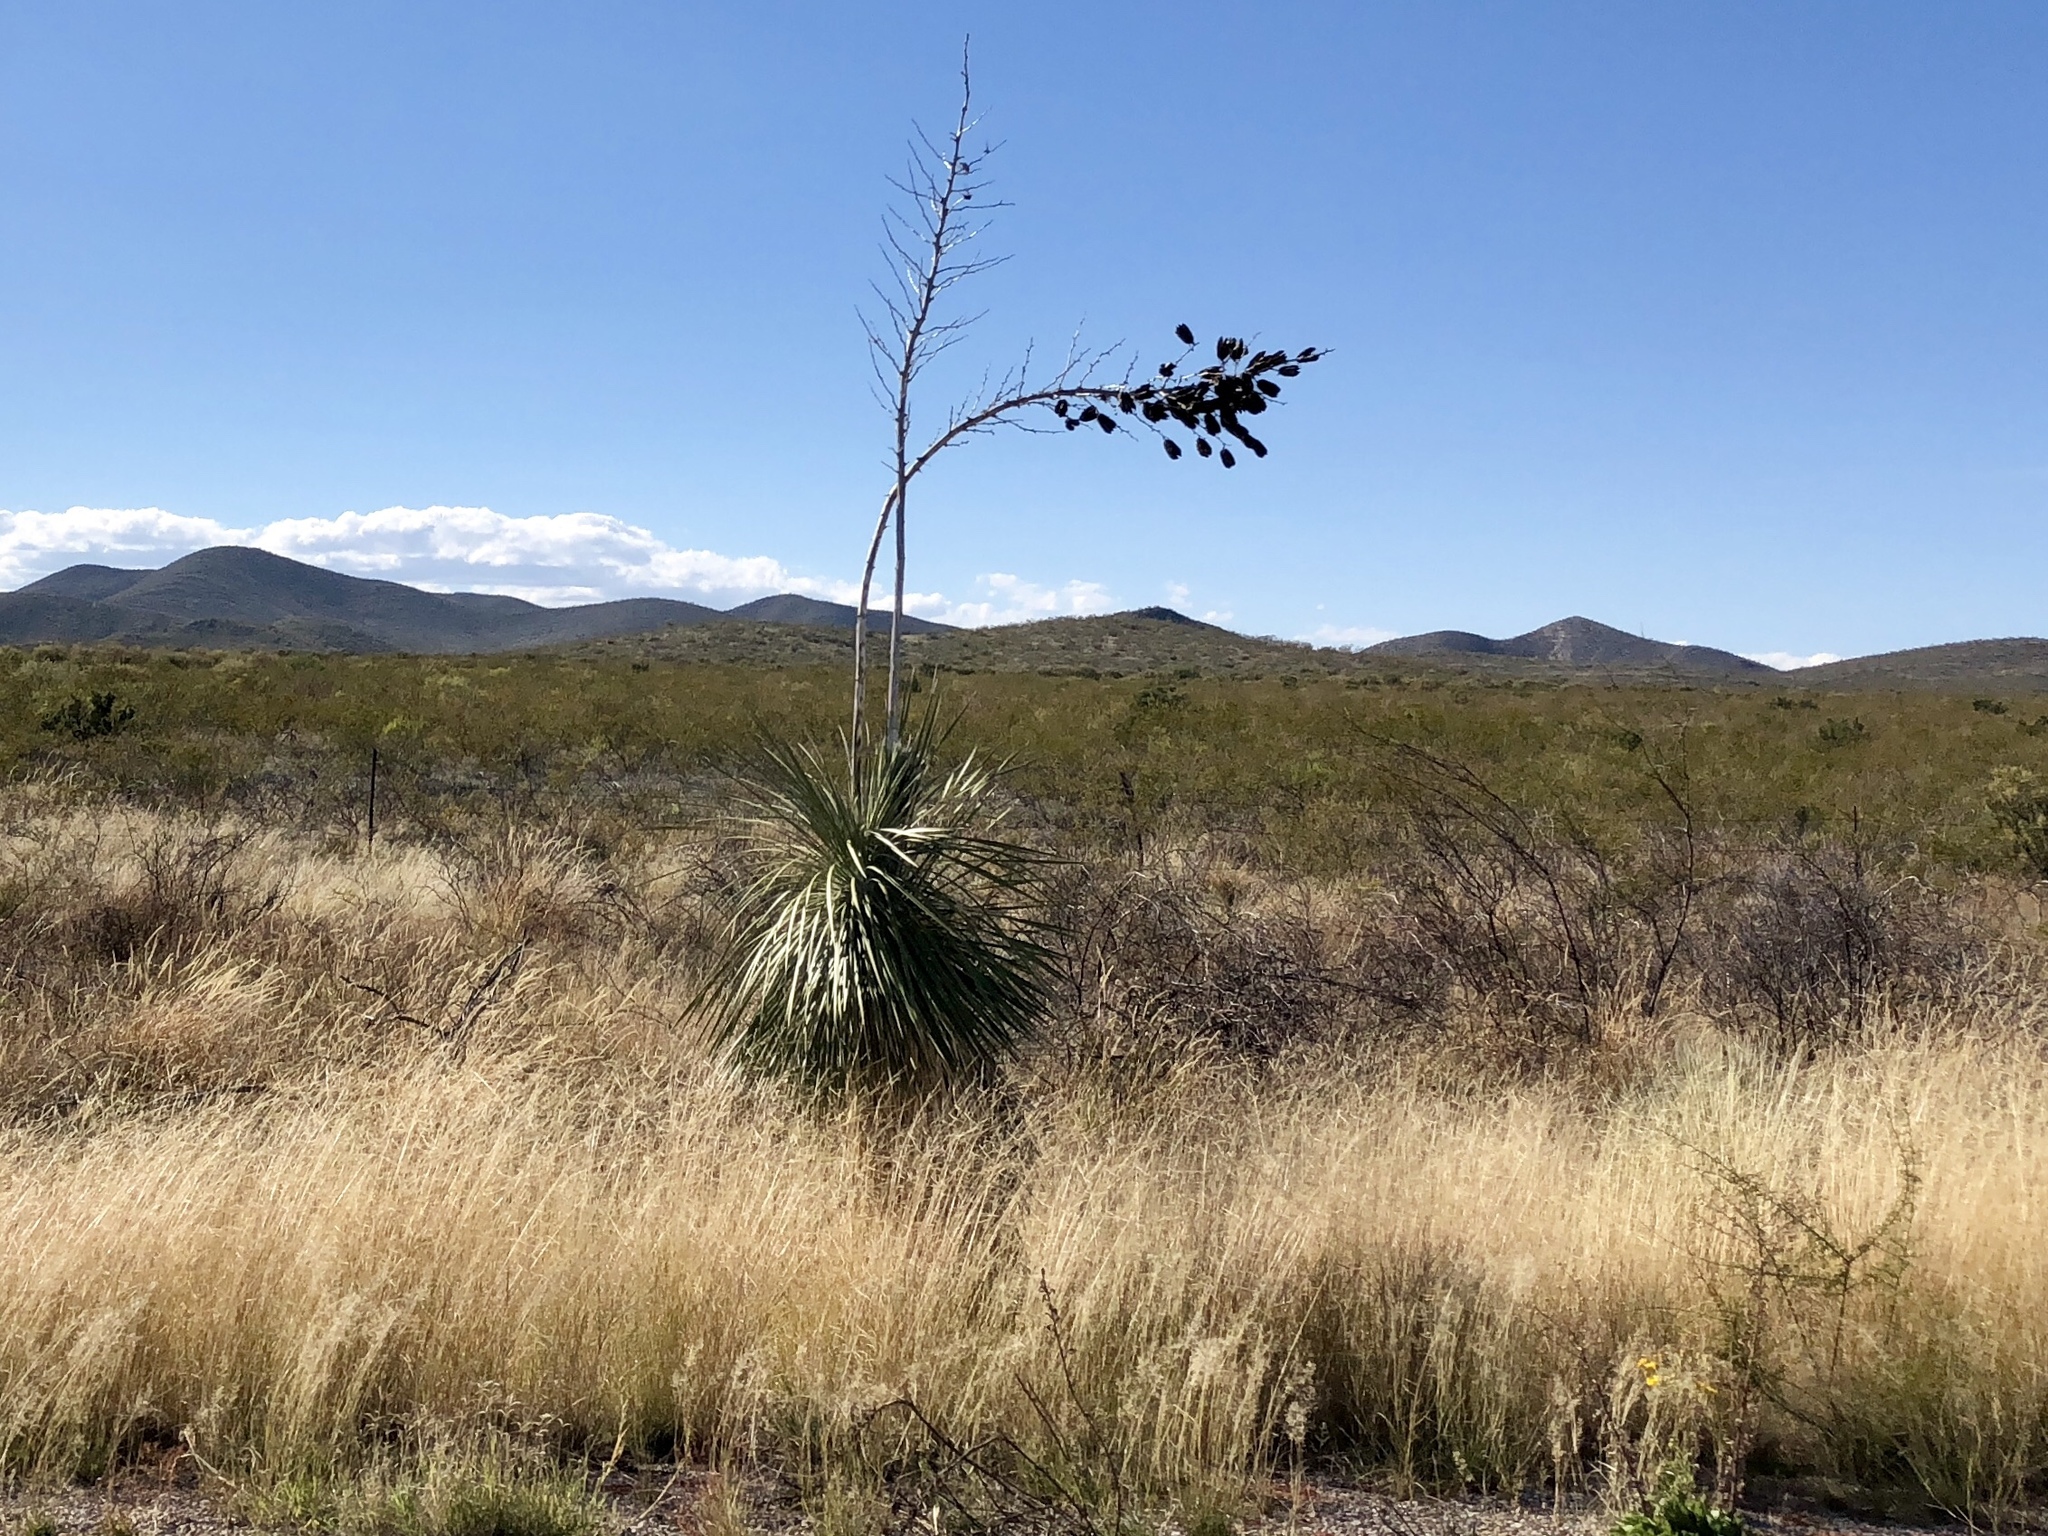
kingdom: Plantae
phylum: Tracheophyta
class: Liliopsida
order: Asparagales
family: Asparagaceae
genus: Yucca
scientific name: Yucca elata
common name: Palmella
